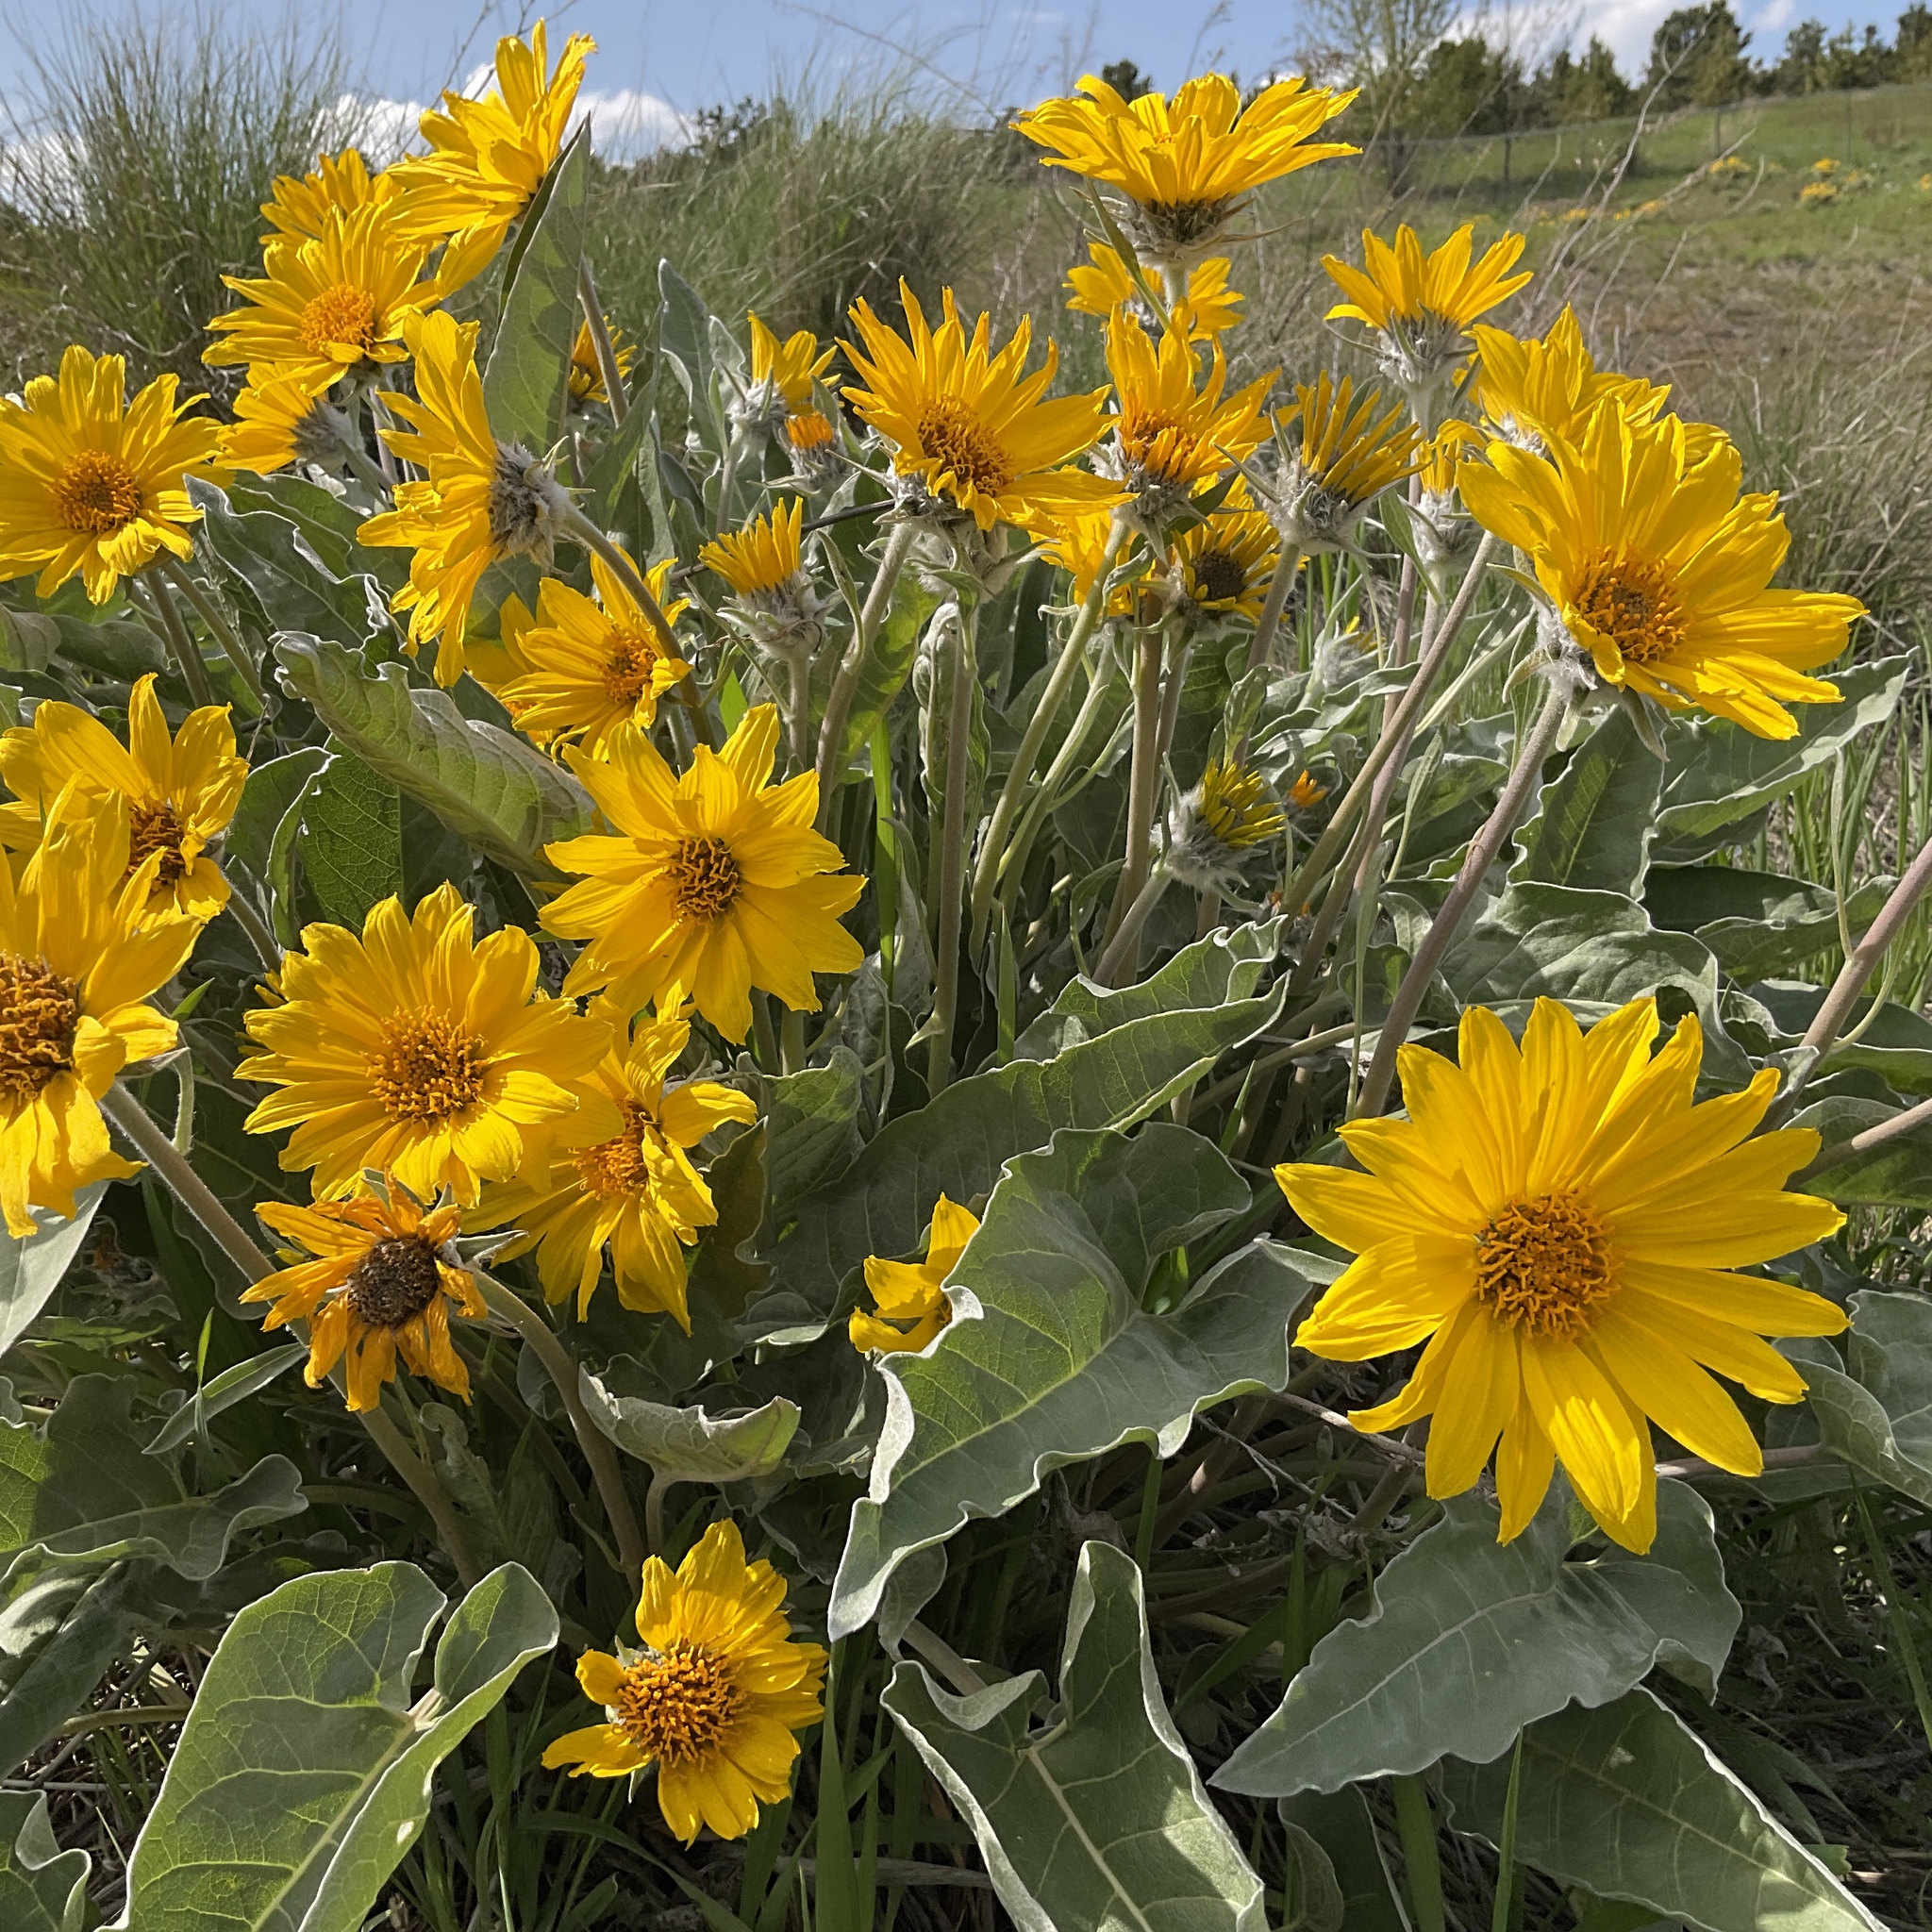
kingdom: Plantae
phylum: Tracheophyta
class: Magnoliopsida
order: Asterales
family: Asteraceae
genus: Wyethia
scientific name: Wyethia sagittata
